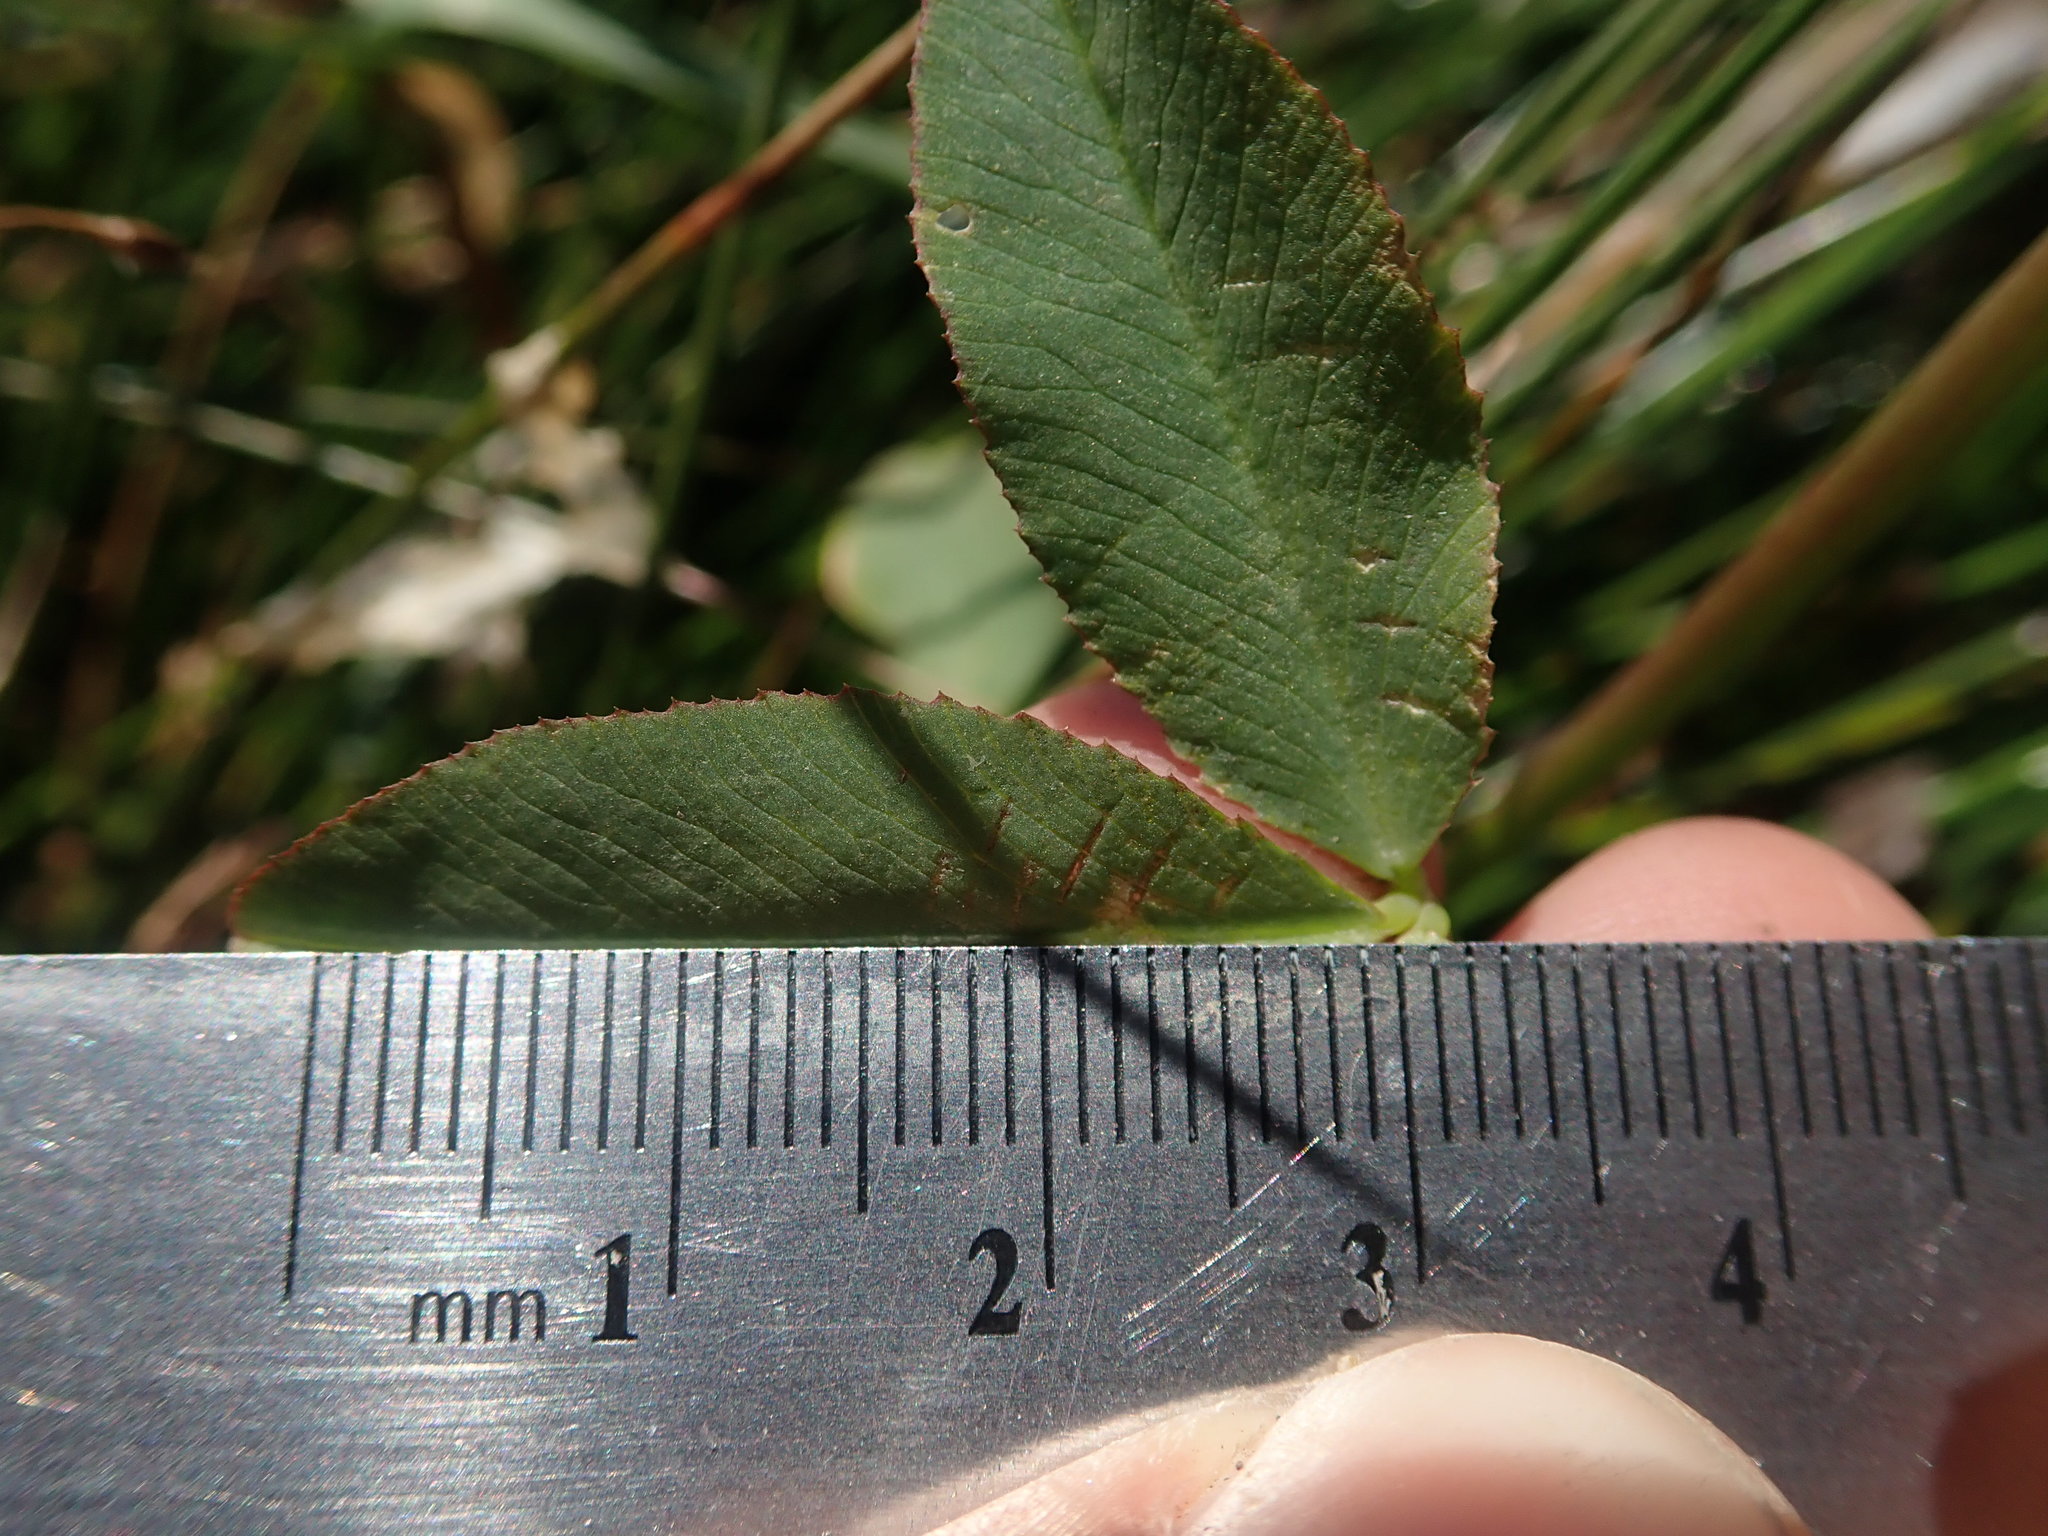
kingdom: Plantae
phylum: Tracheophyta
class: Magnoliopsida
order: Fabales
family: Fabaceae
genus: Trifolium
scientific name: Trifolium wormskioldii
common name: Springbank clover
